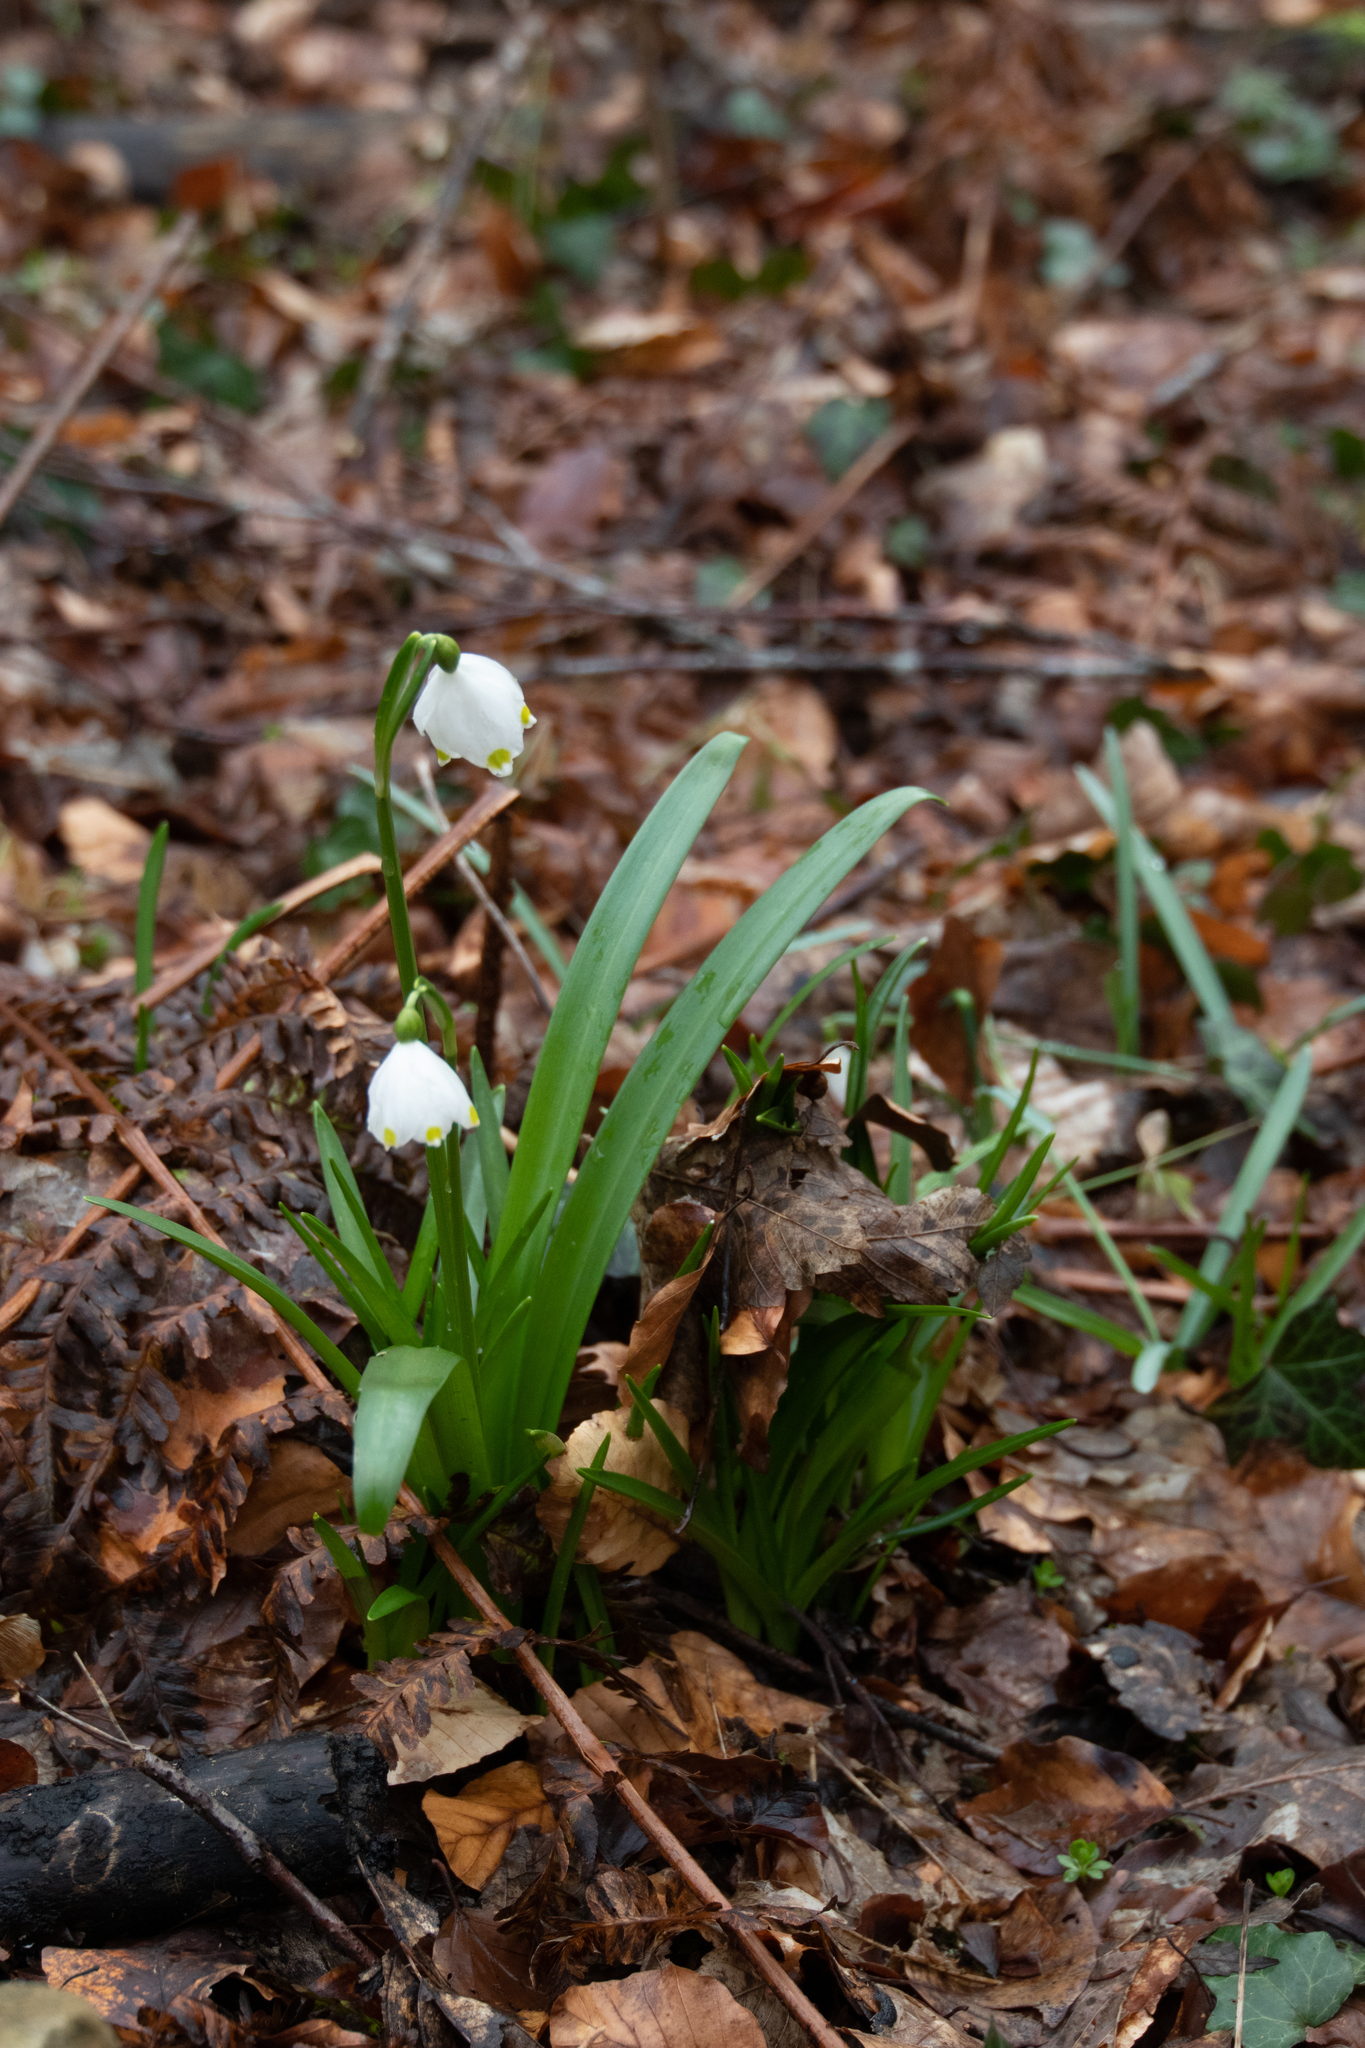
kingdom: Plantae
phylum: Tracheophyta
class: Liliopsida
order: Asparagales
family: Amaryllidaceae
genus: Leucojum
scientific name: Leucojum vernum
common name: Spring snowflake
